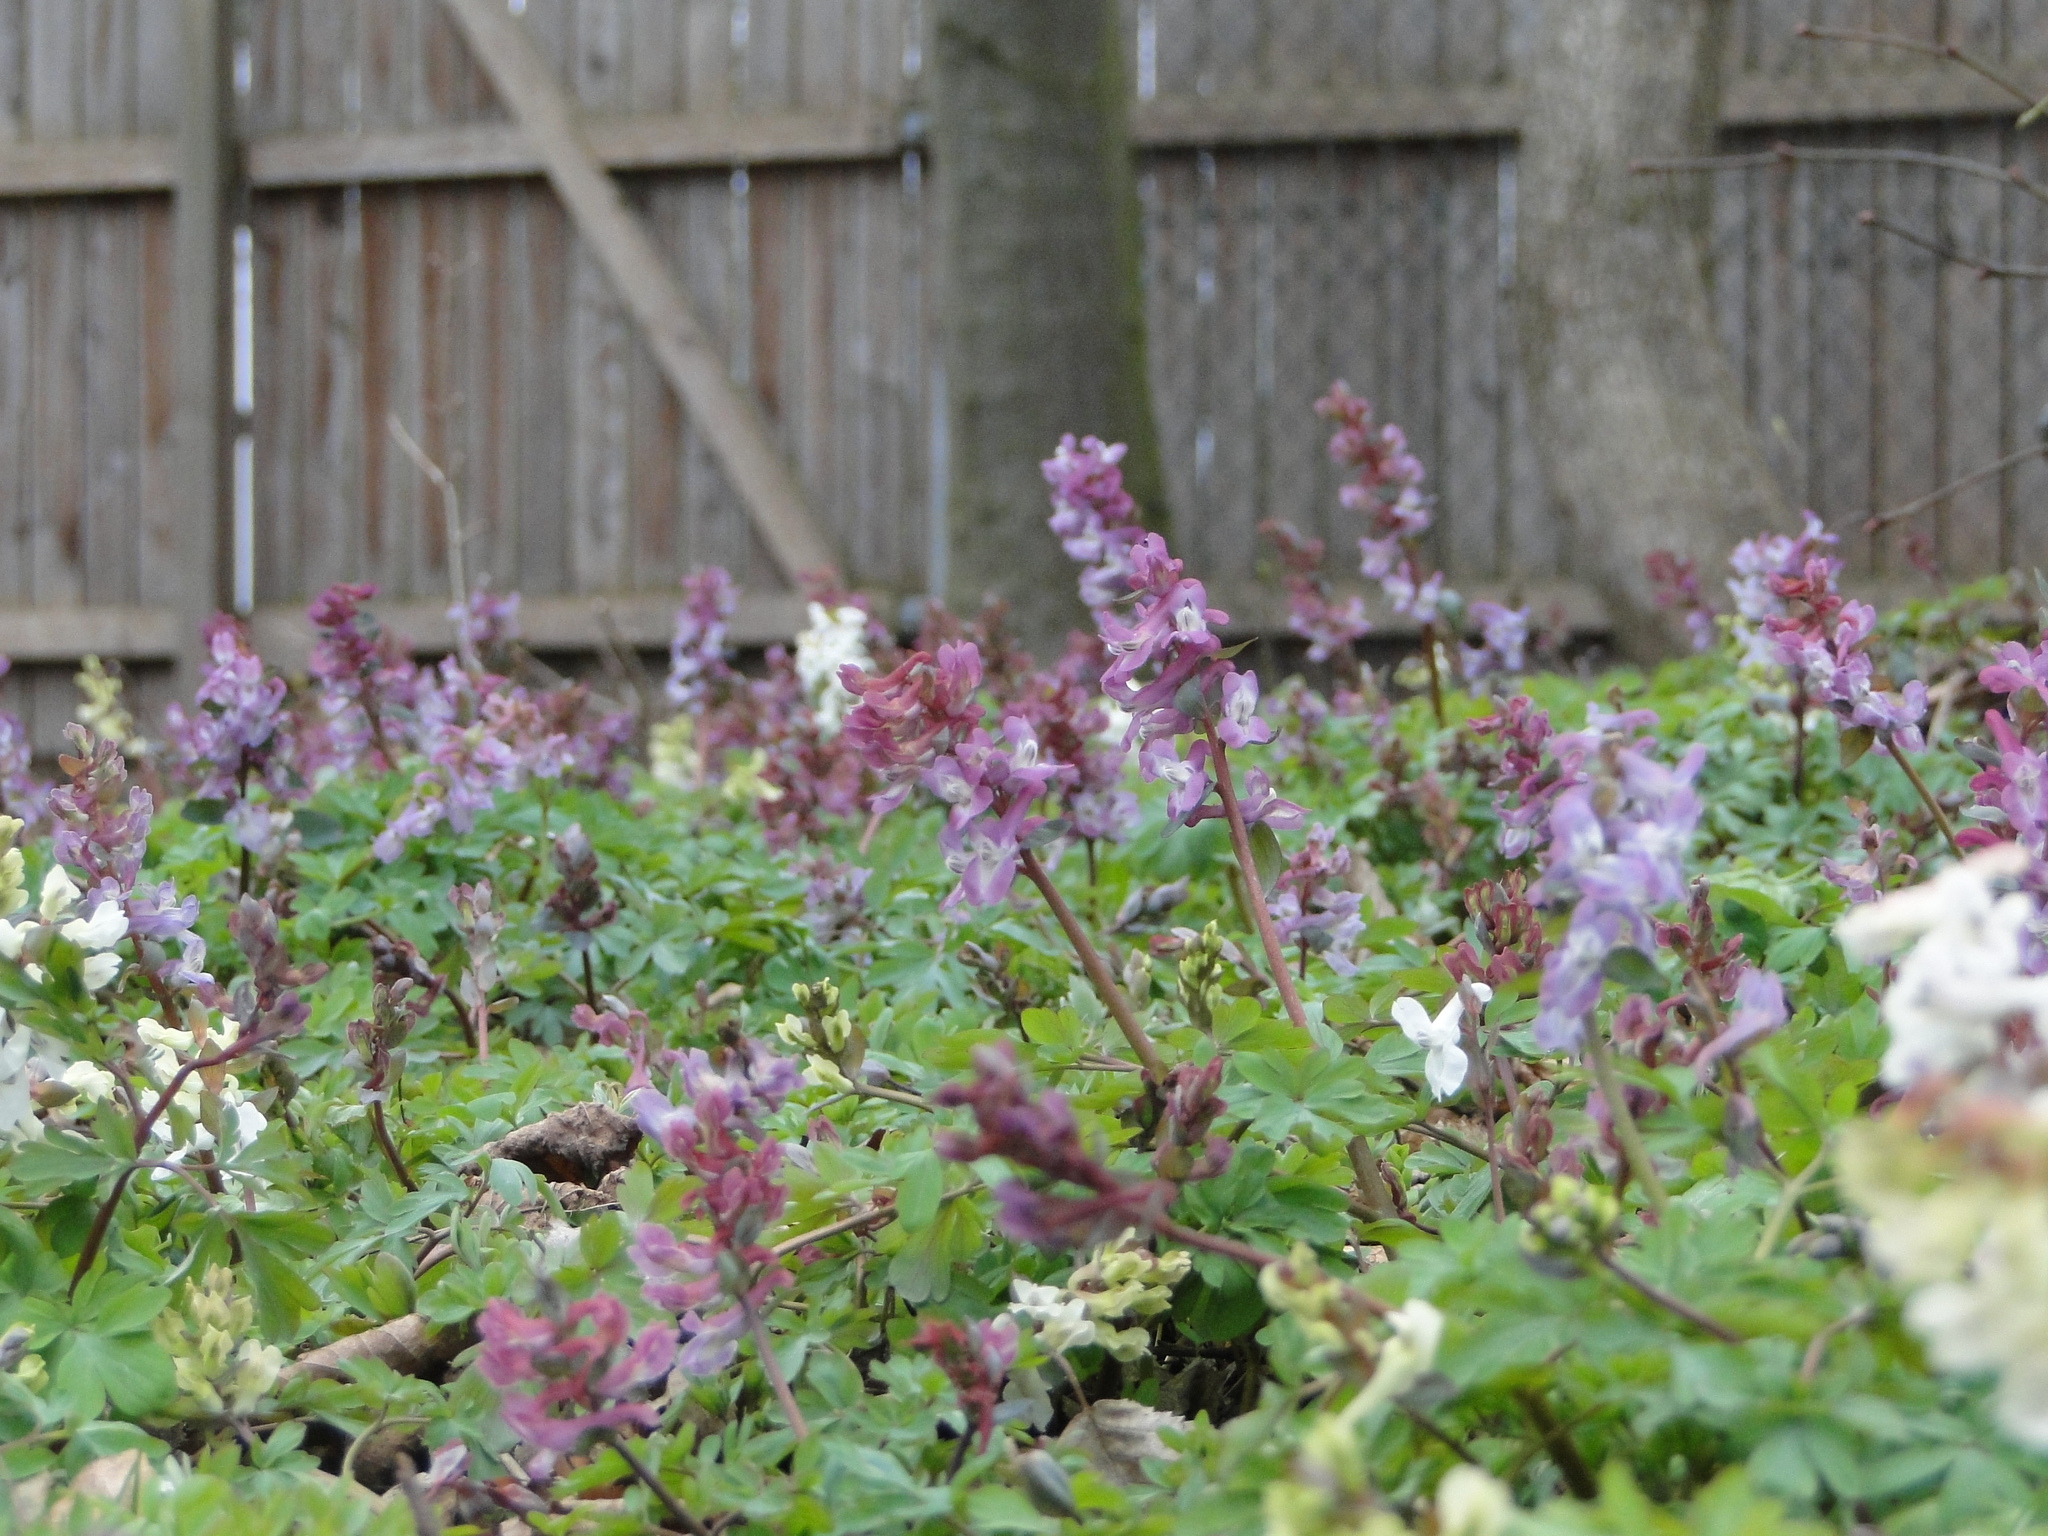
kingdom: Plantae
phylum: Tracheophyta
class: Magnoliopsida
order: Ranunculales
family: Papaveraceae
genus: Corydalis
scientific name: Corydalis cava
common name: Hollowroot
